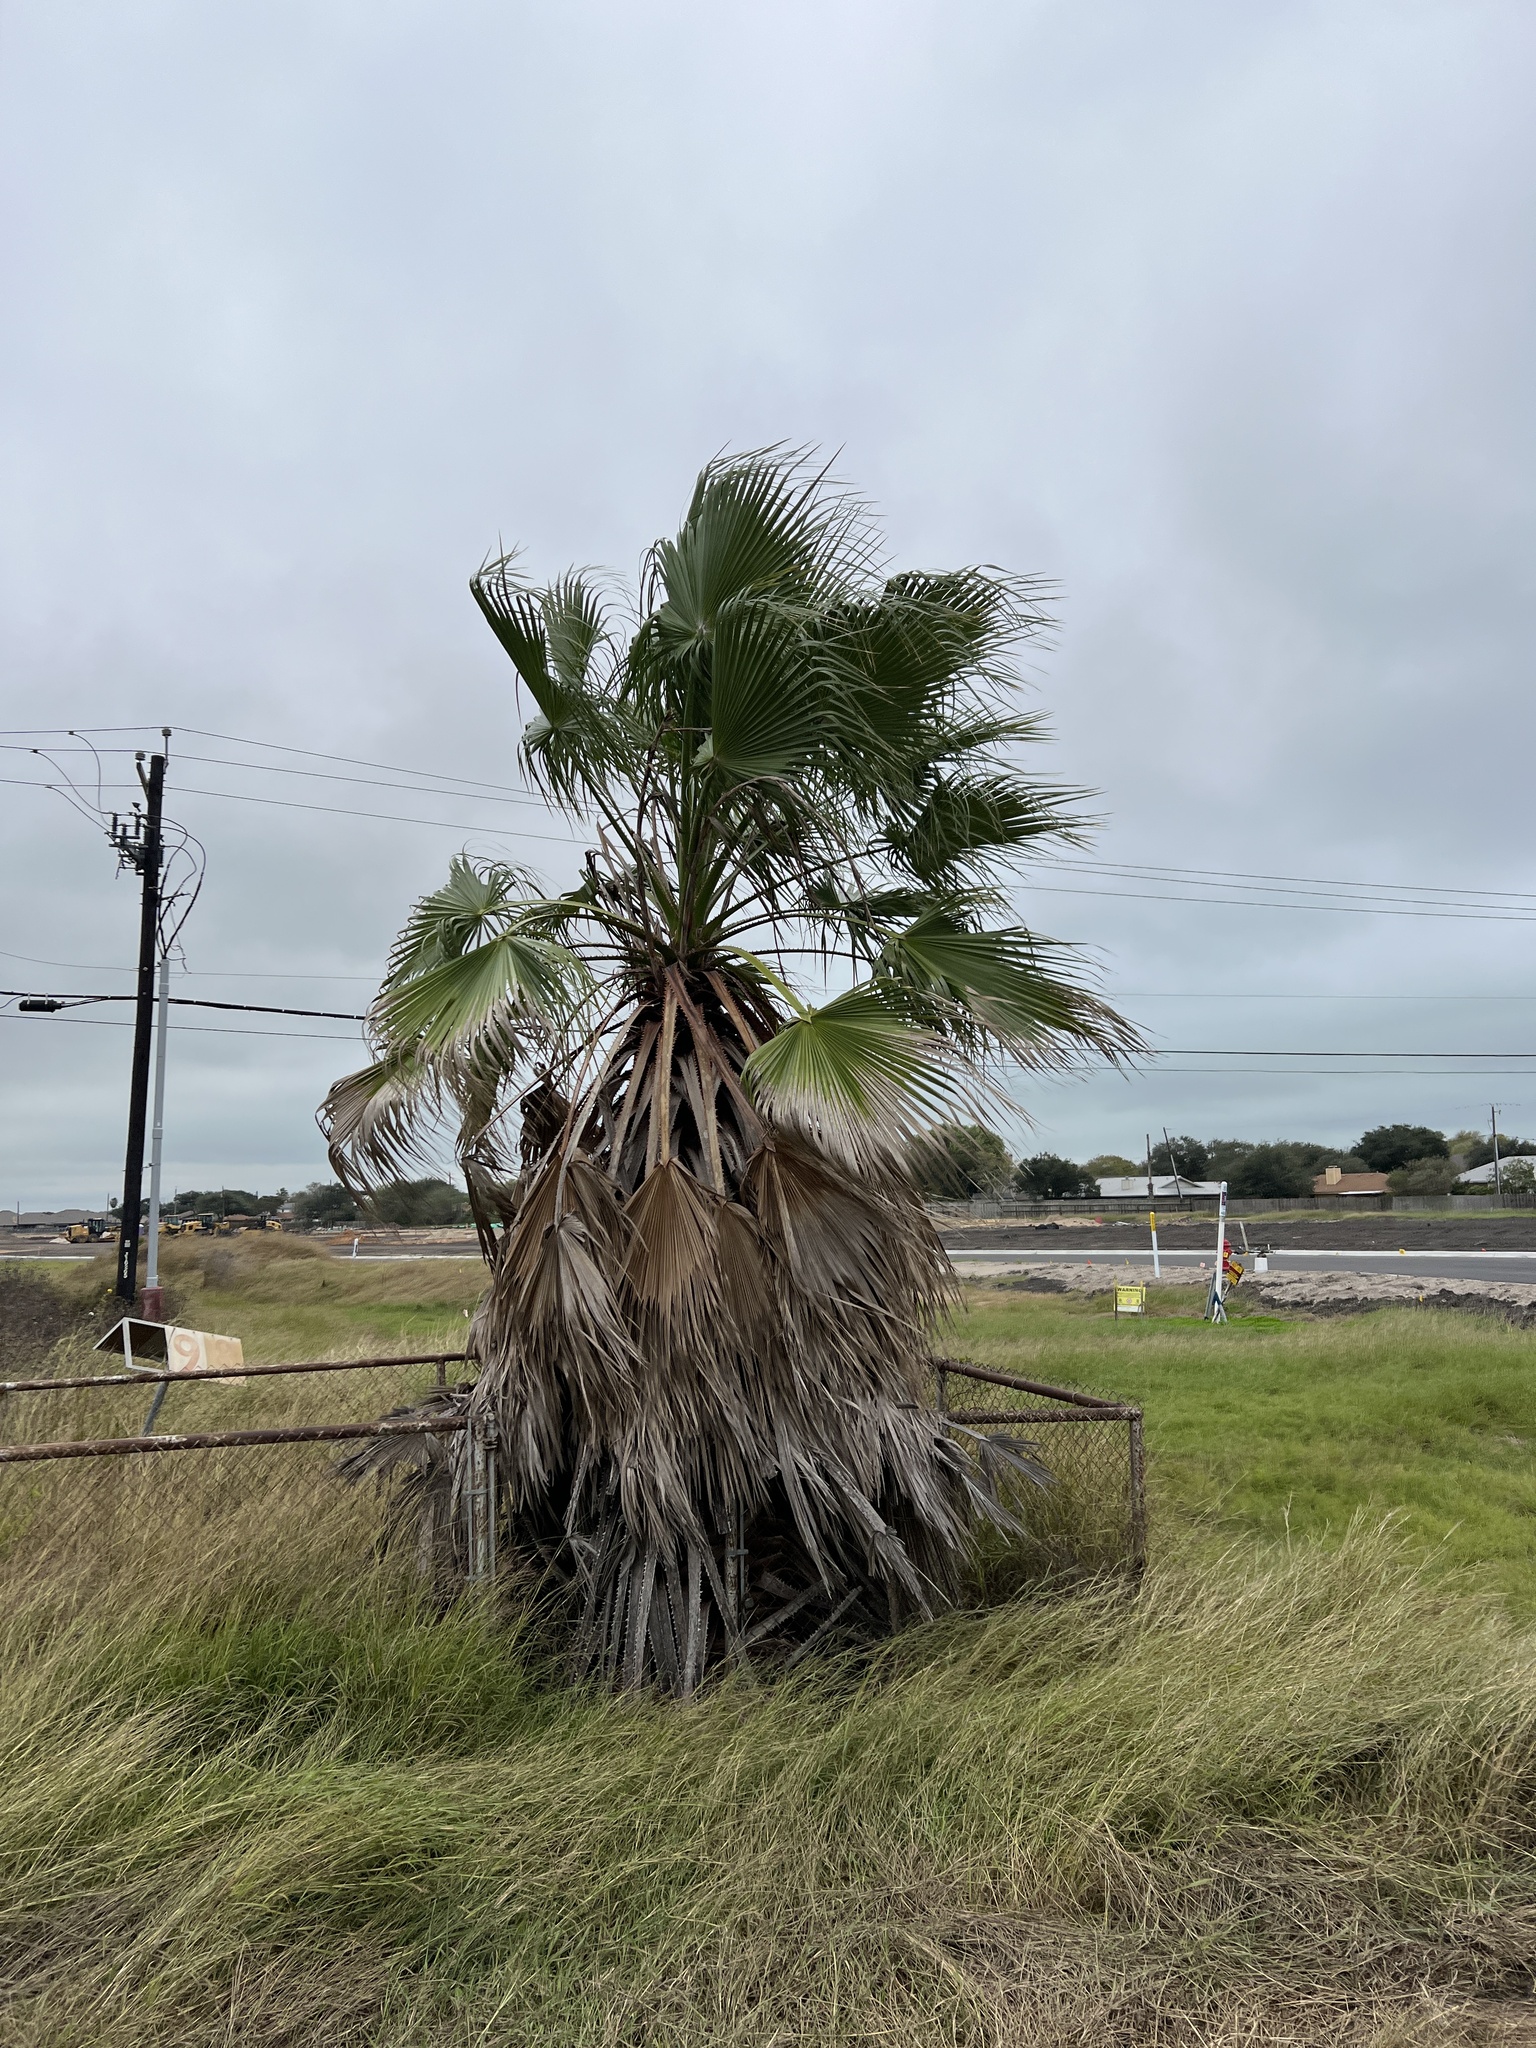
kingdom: Plantae
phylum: Tracheophyta
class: Liliopsida
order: Arecales
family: Arecaceae
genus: Washingtonia
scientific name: Washingtonia robusta
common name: Mexican fan palm
